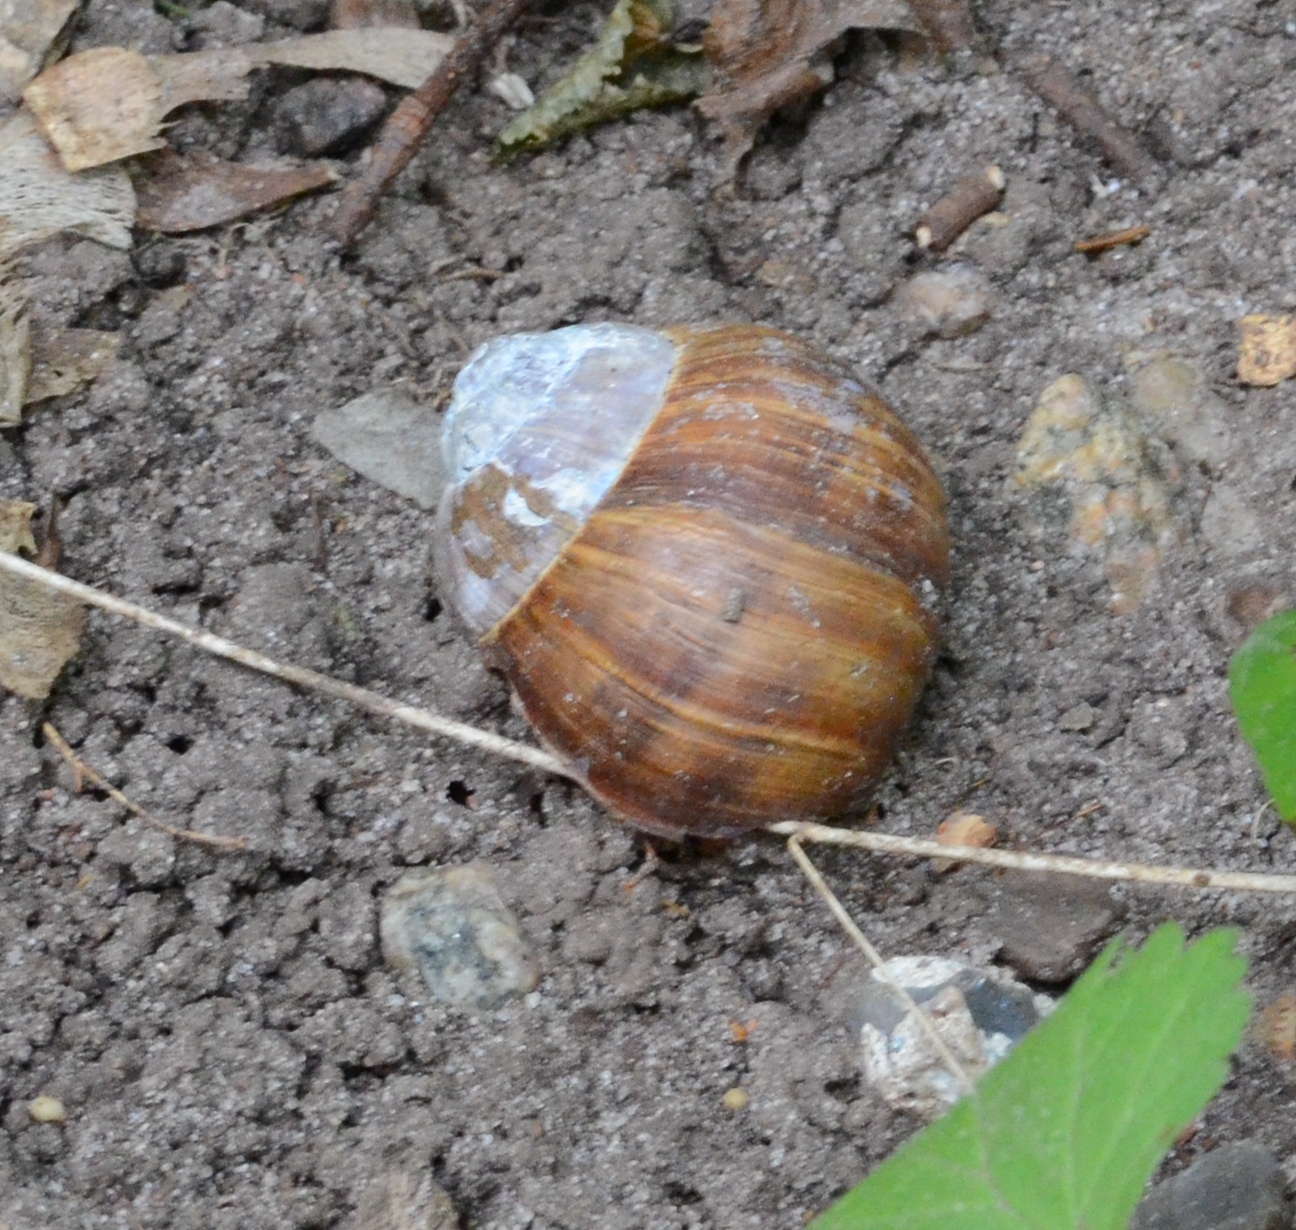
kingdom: Animalia
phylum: Mollusca
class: Gastropoda
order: Stylommatophora
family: Helicidae
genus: Helix
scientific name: Helix pomatia
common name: Roman snail
